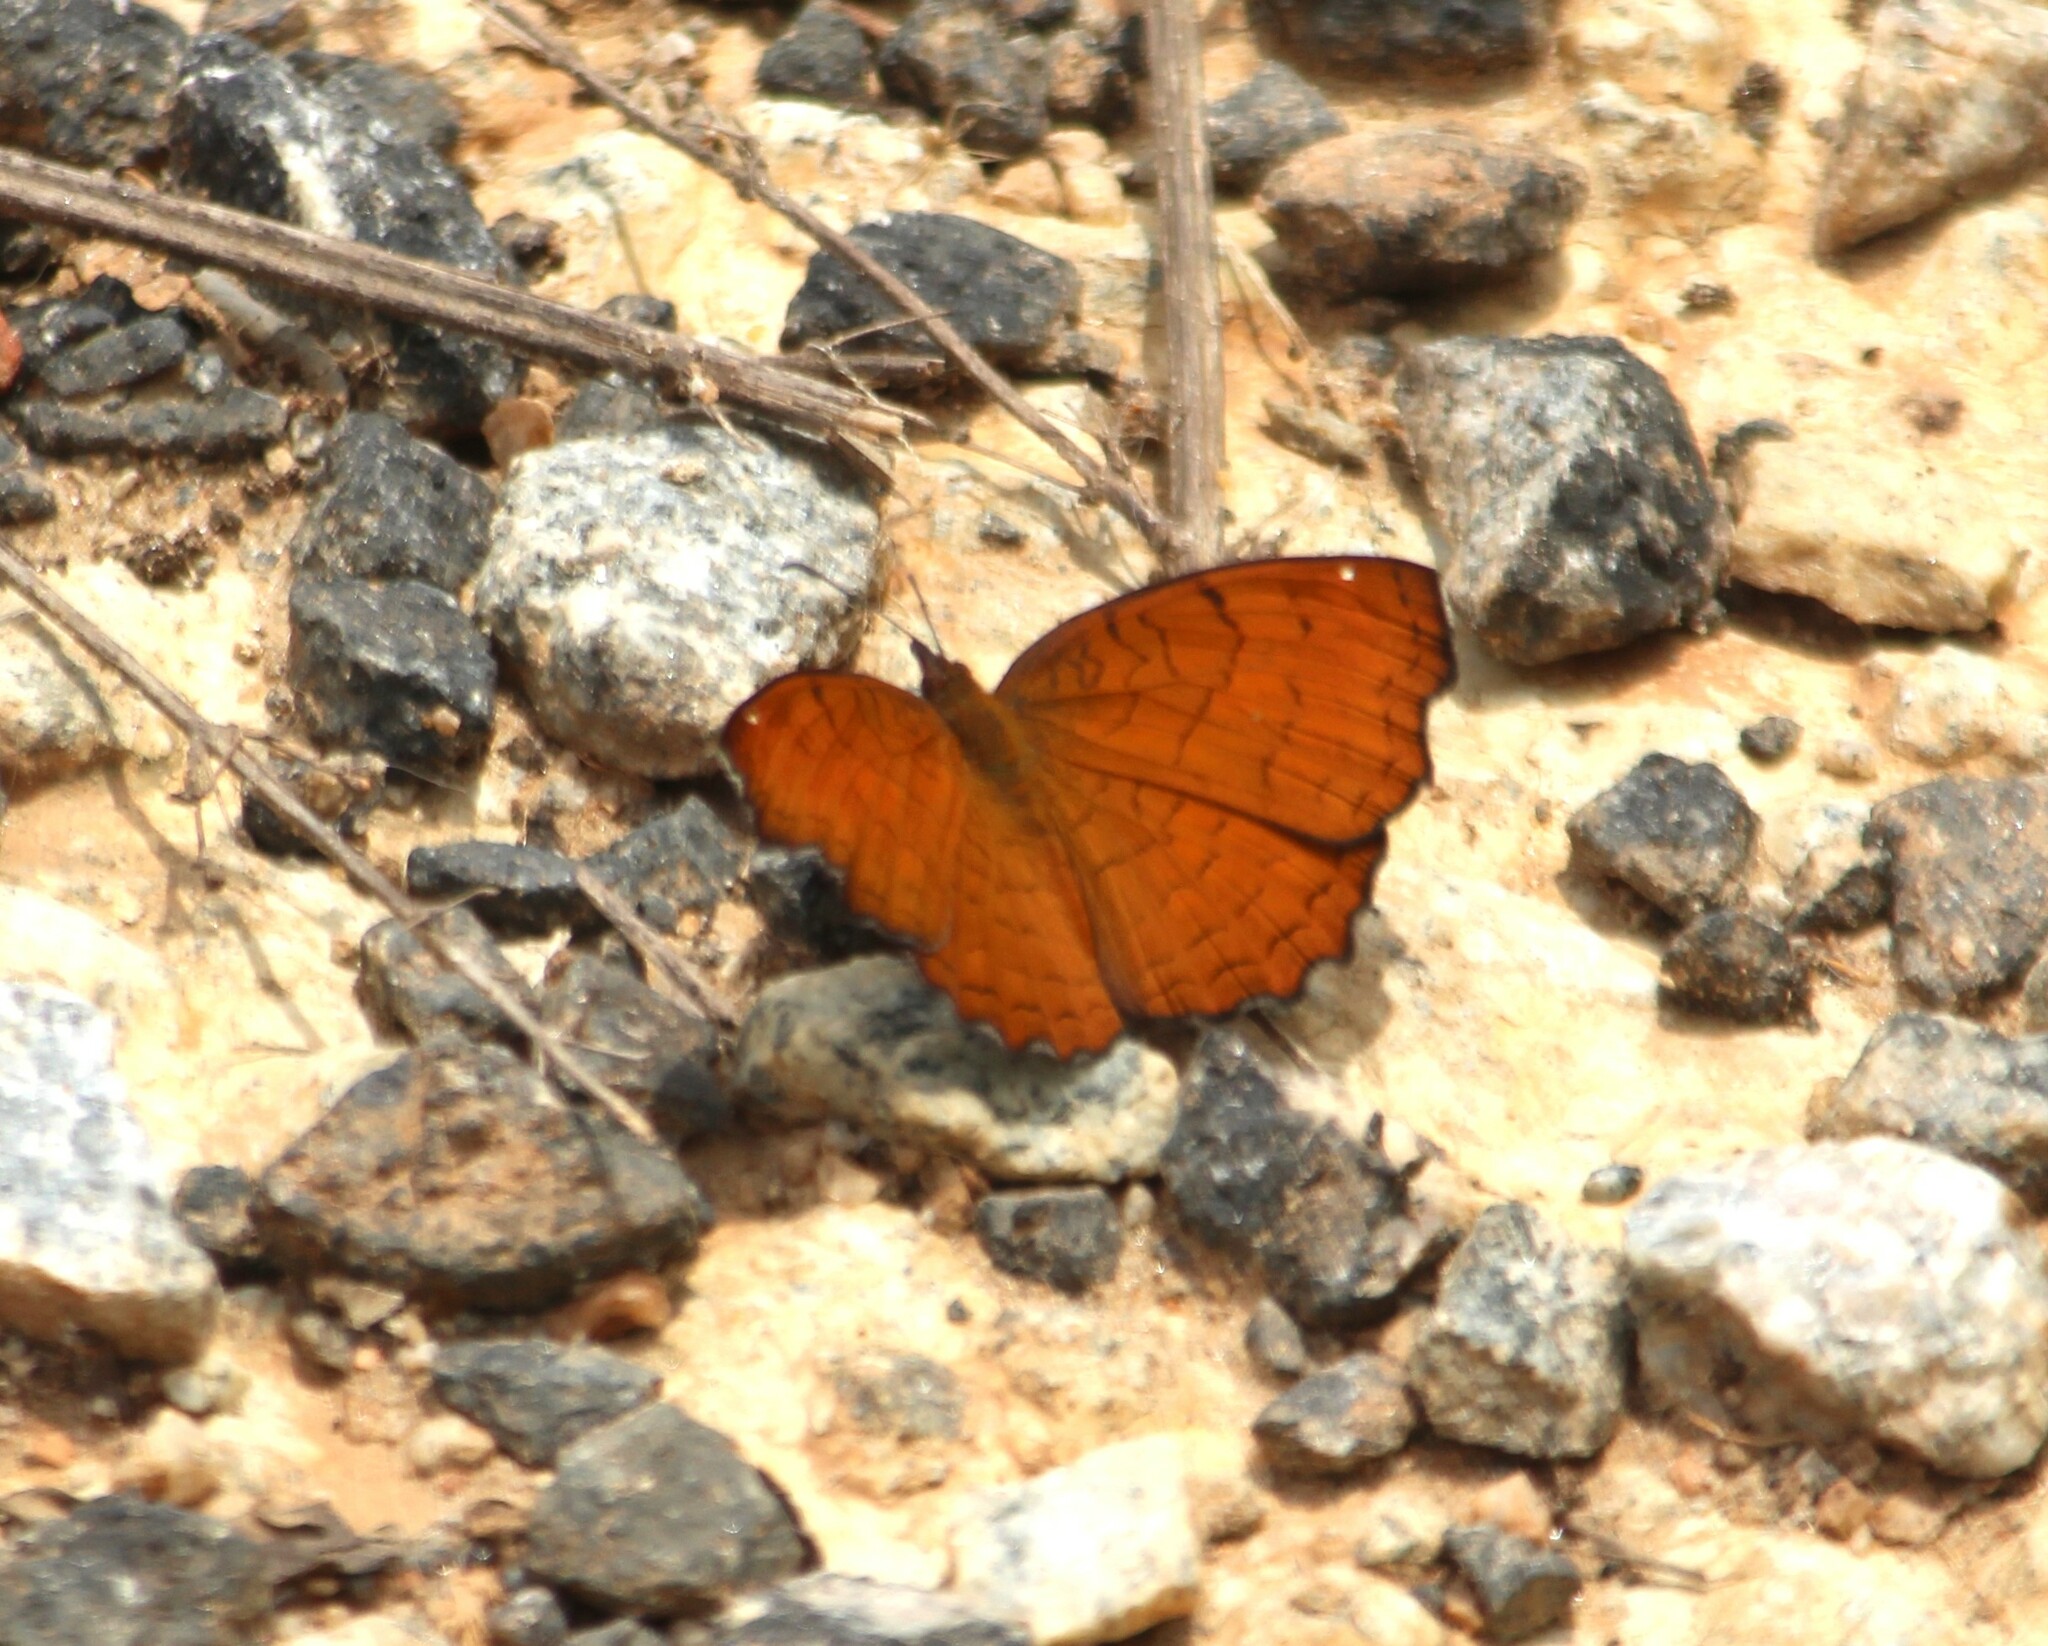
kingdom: Animalia
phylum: Arthropoda
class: Insecta
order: Lepidoptera
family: Nymphalidae
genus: Ariadne
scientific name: Ariadne ariadne
